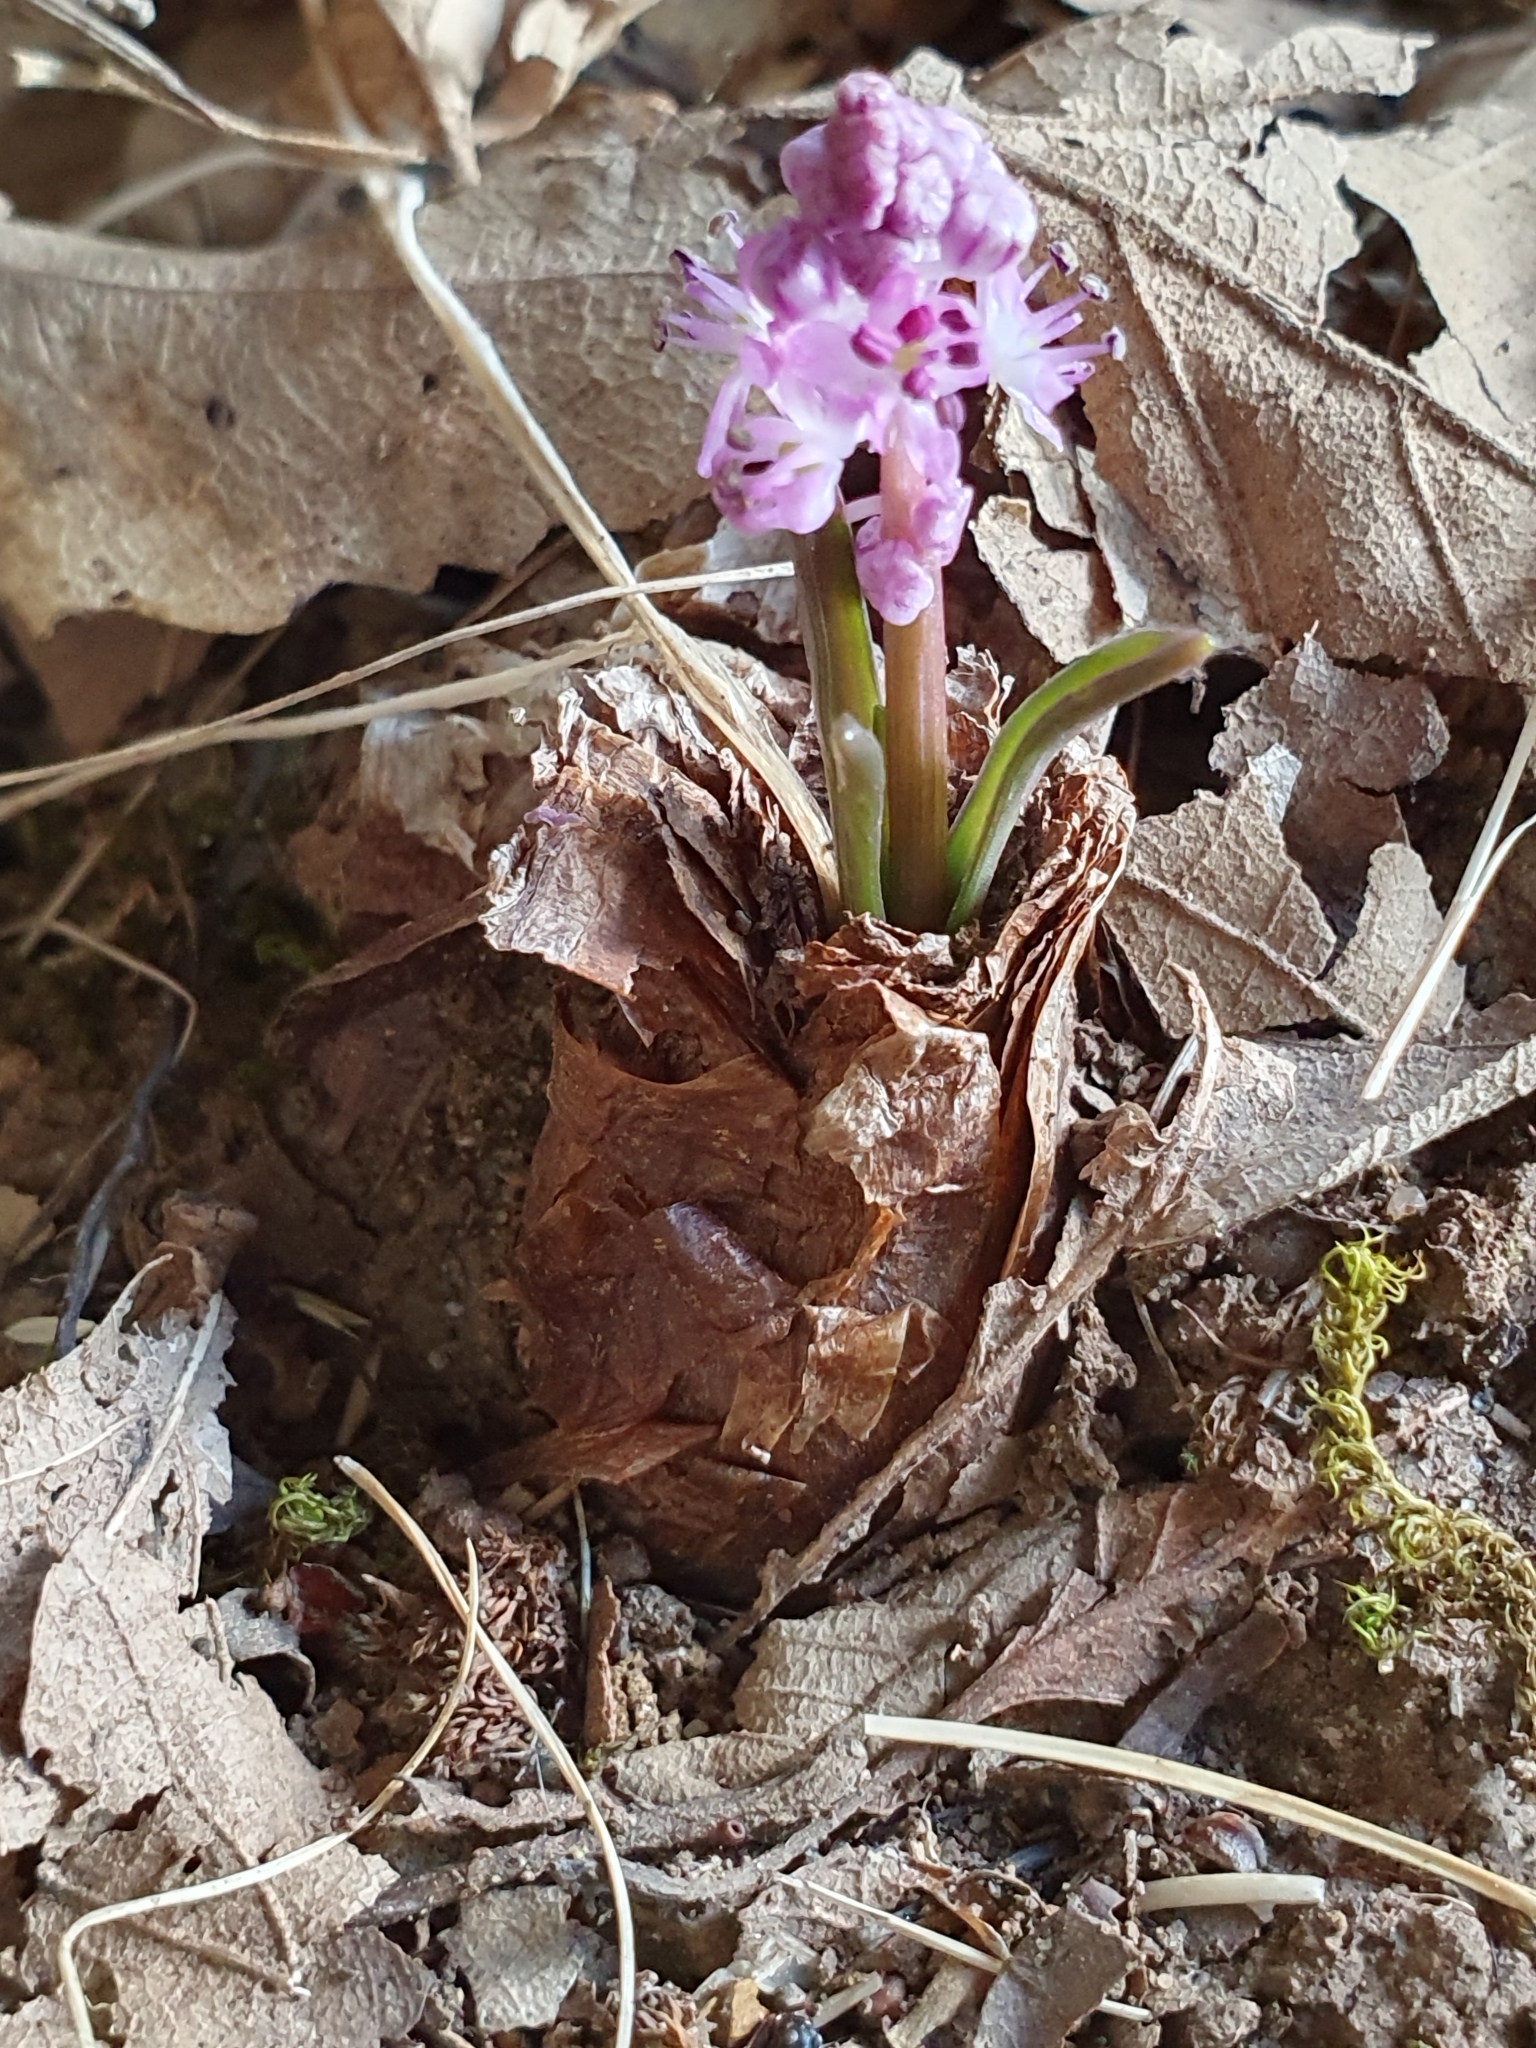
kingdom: Plantae
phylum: Tracheophyta
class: Liliopsida
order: Asparagales
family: Asparagaceae
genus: Barnardia
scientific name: Barnardia numidica
